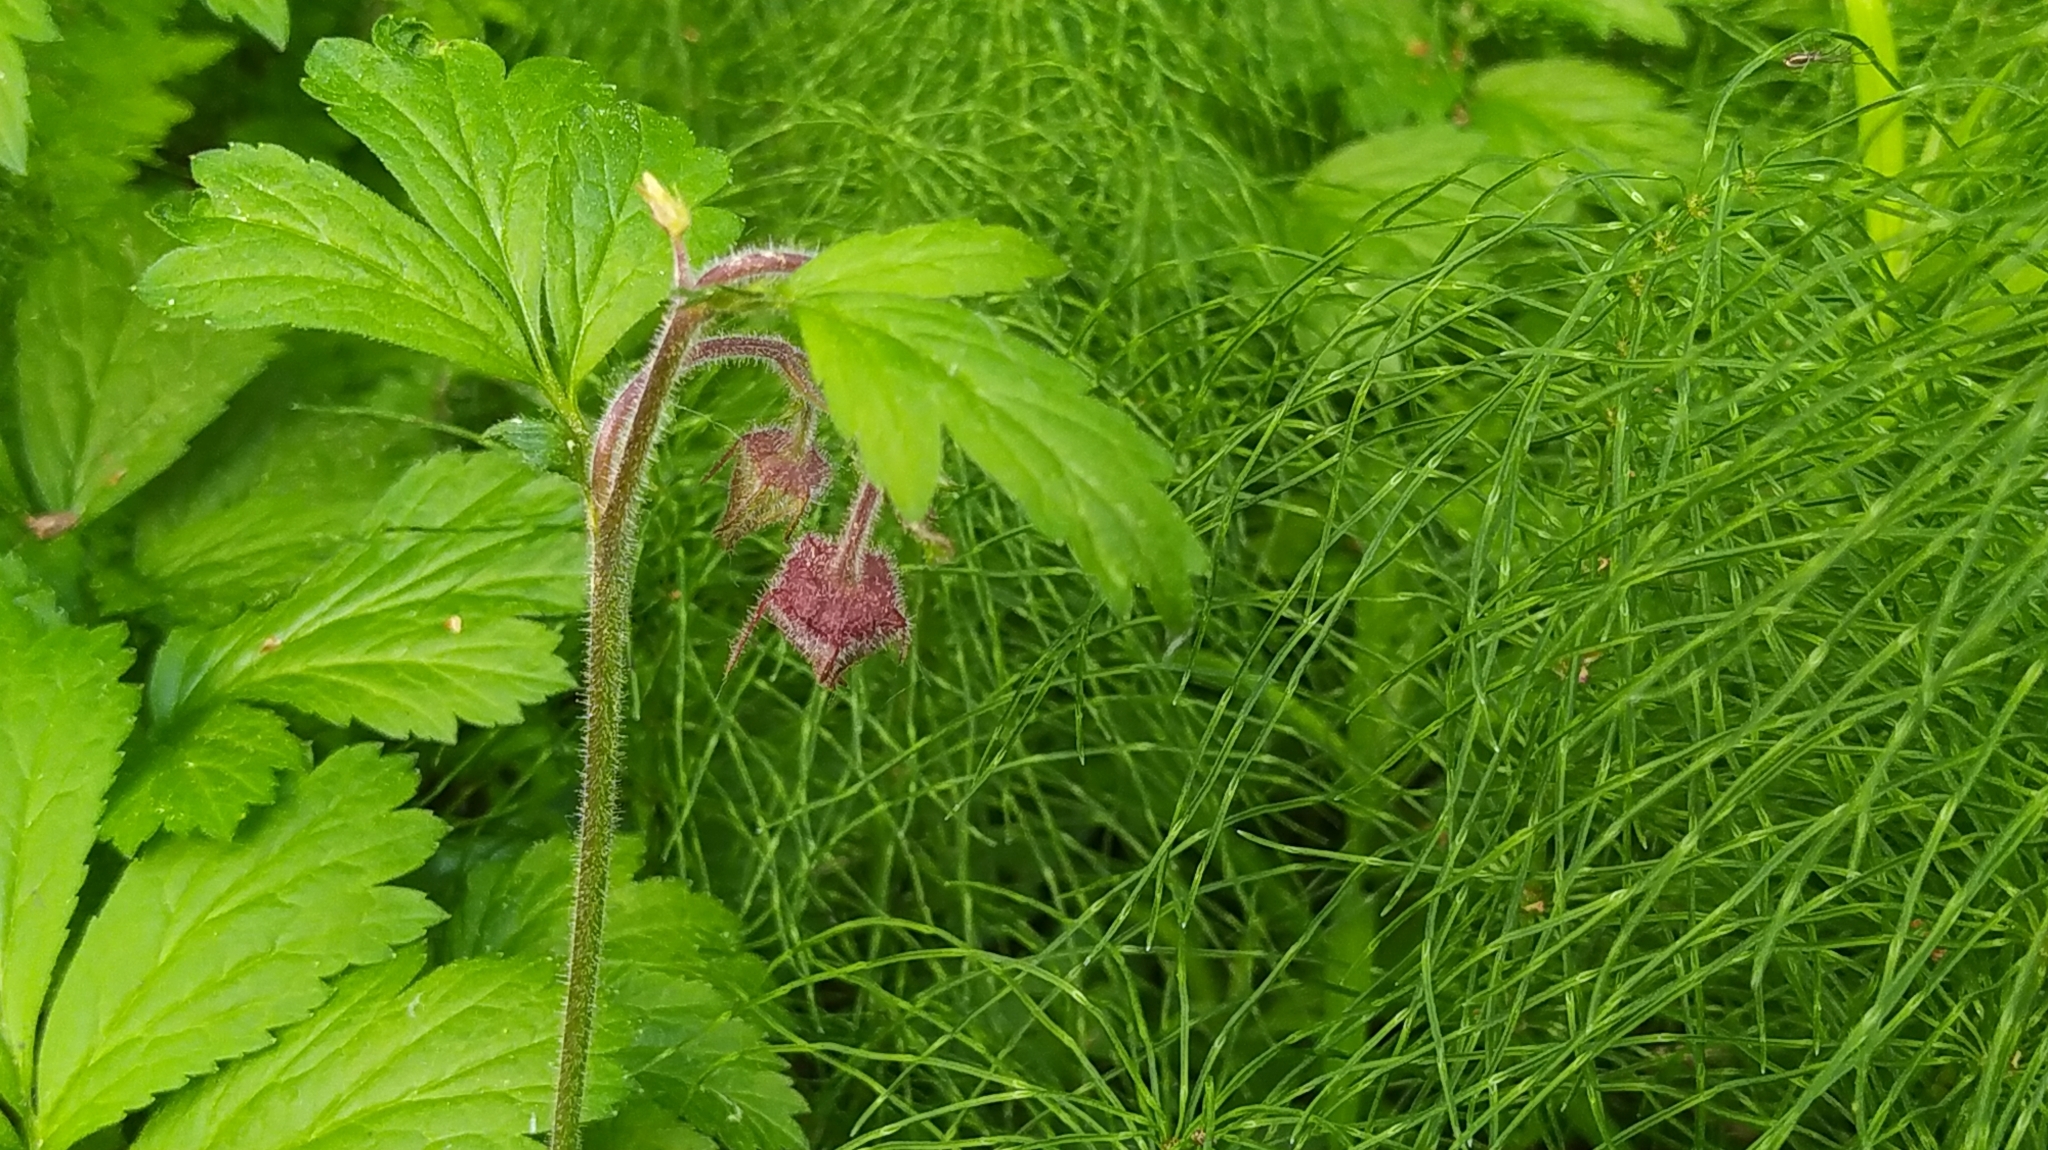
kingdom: Plantae
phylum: Tracheophyta
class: Magnoliopsida
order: Rosales
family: Rosaceae
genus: Geum
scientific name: Geum rivale
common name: Water avens
